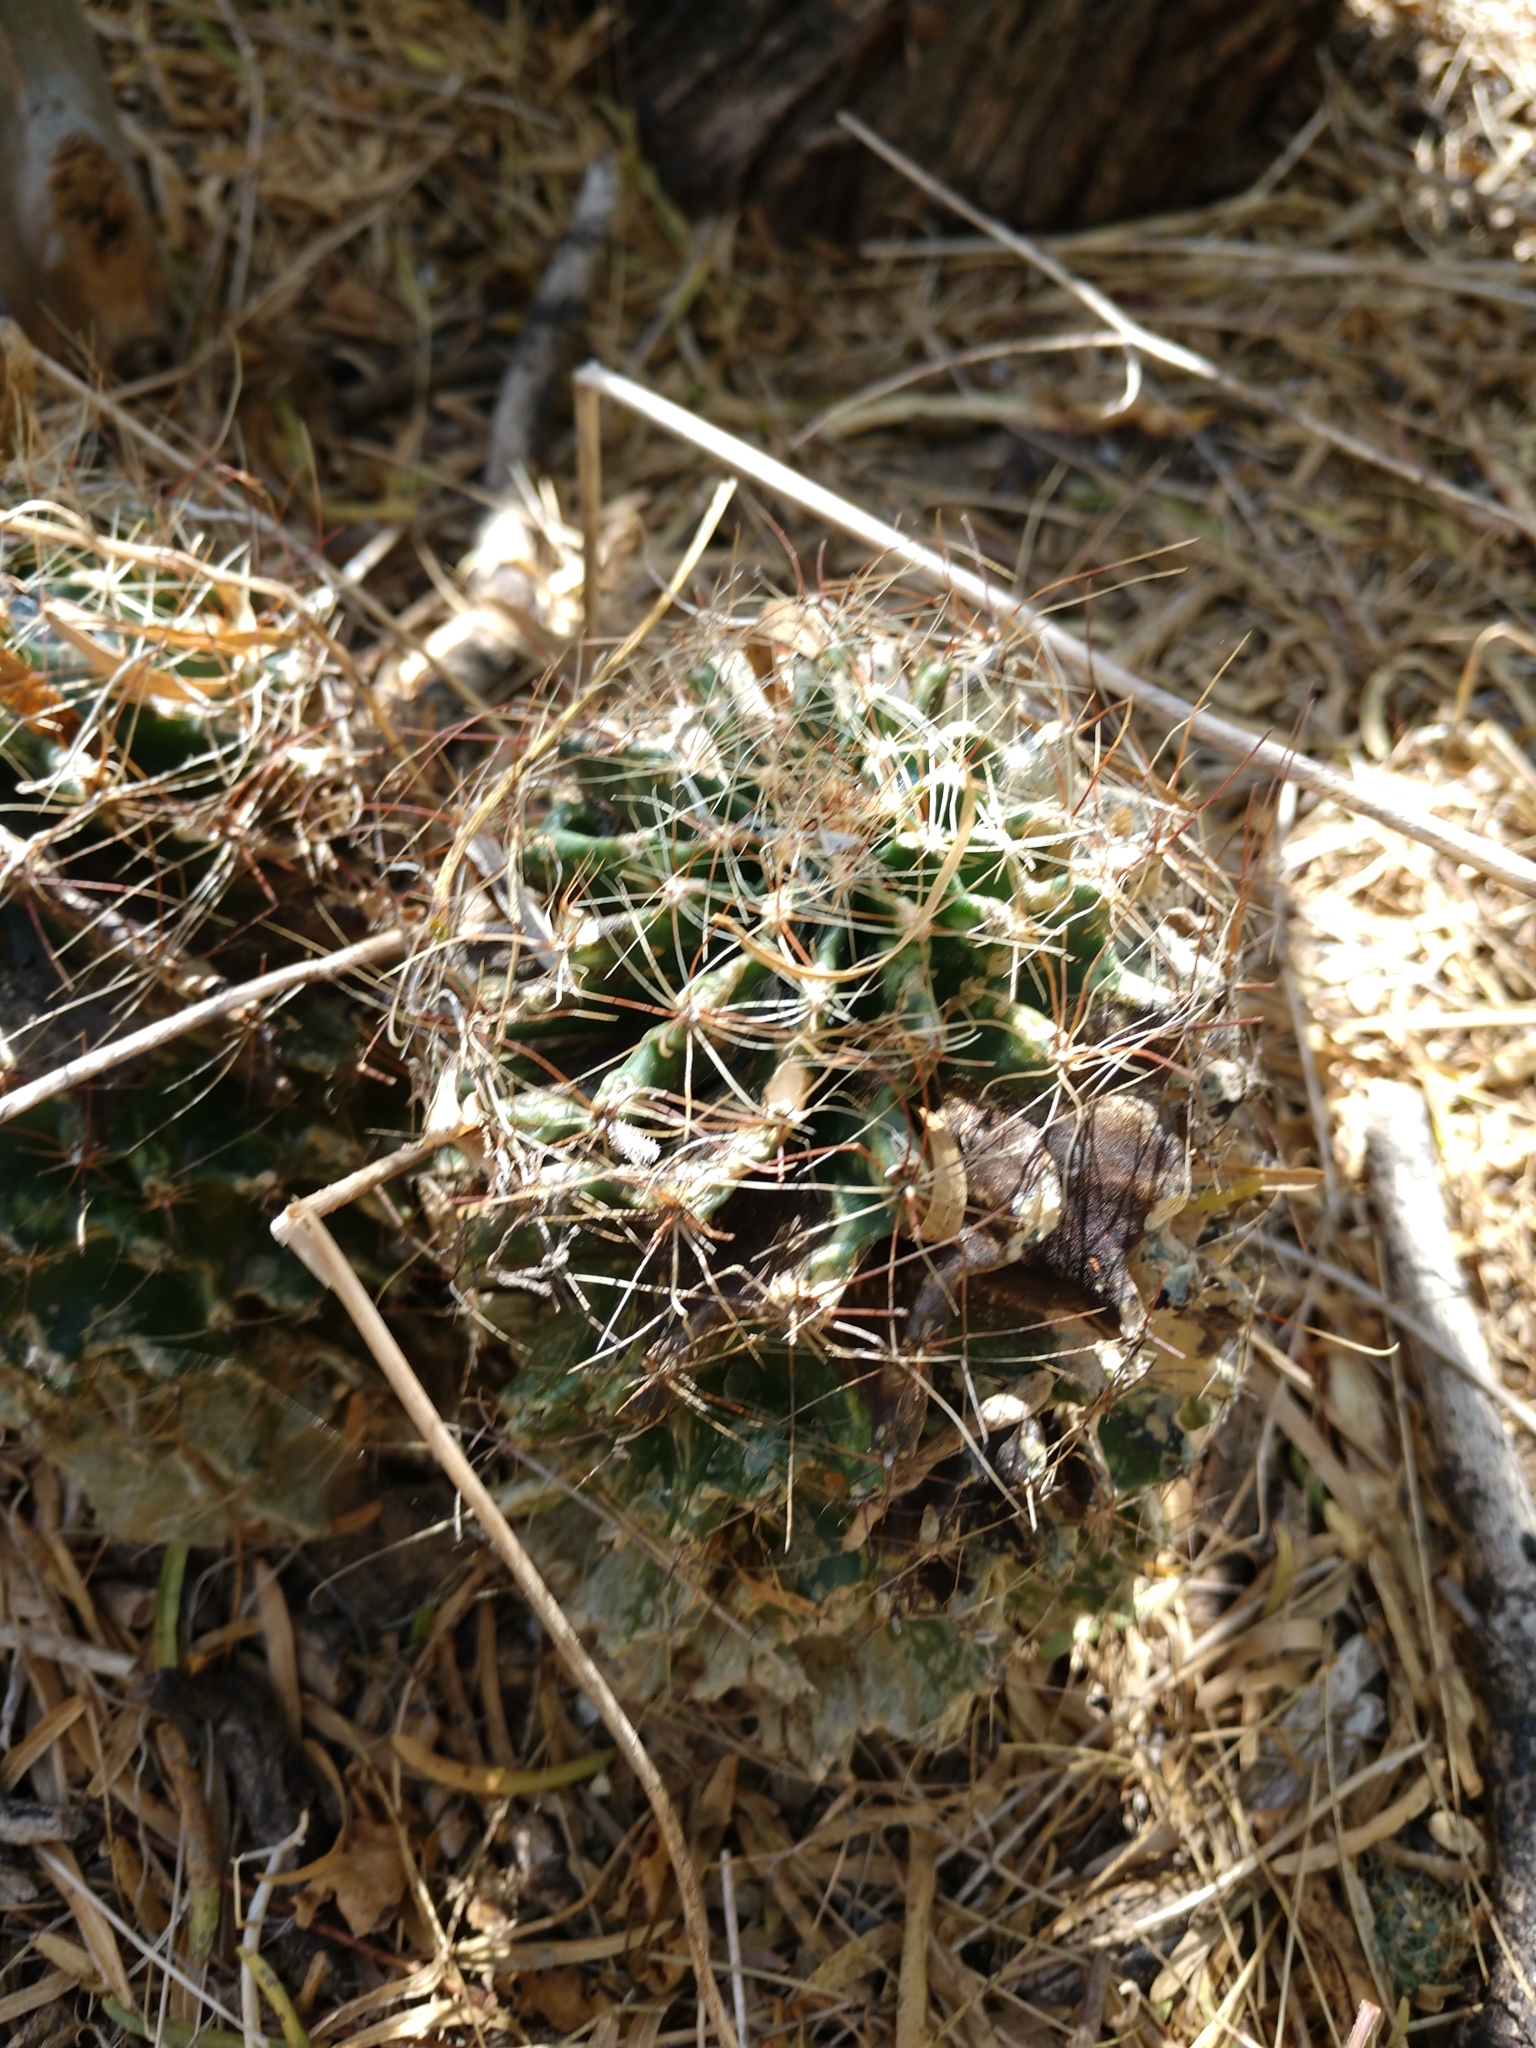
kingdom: Plantae
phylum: Tracheophyta
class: Magnoliopsida
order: Caryophyllales
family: Cactaceae
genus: Thelocactus
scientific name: Thelocactus setispinus
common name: Miniature barrel cactus
